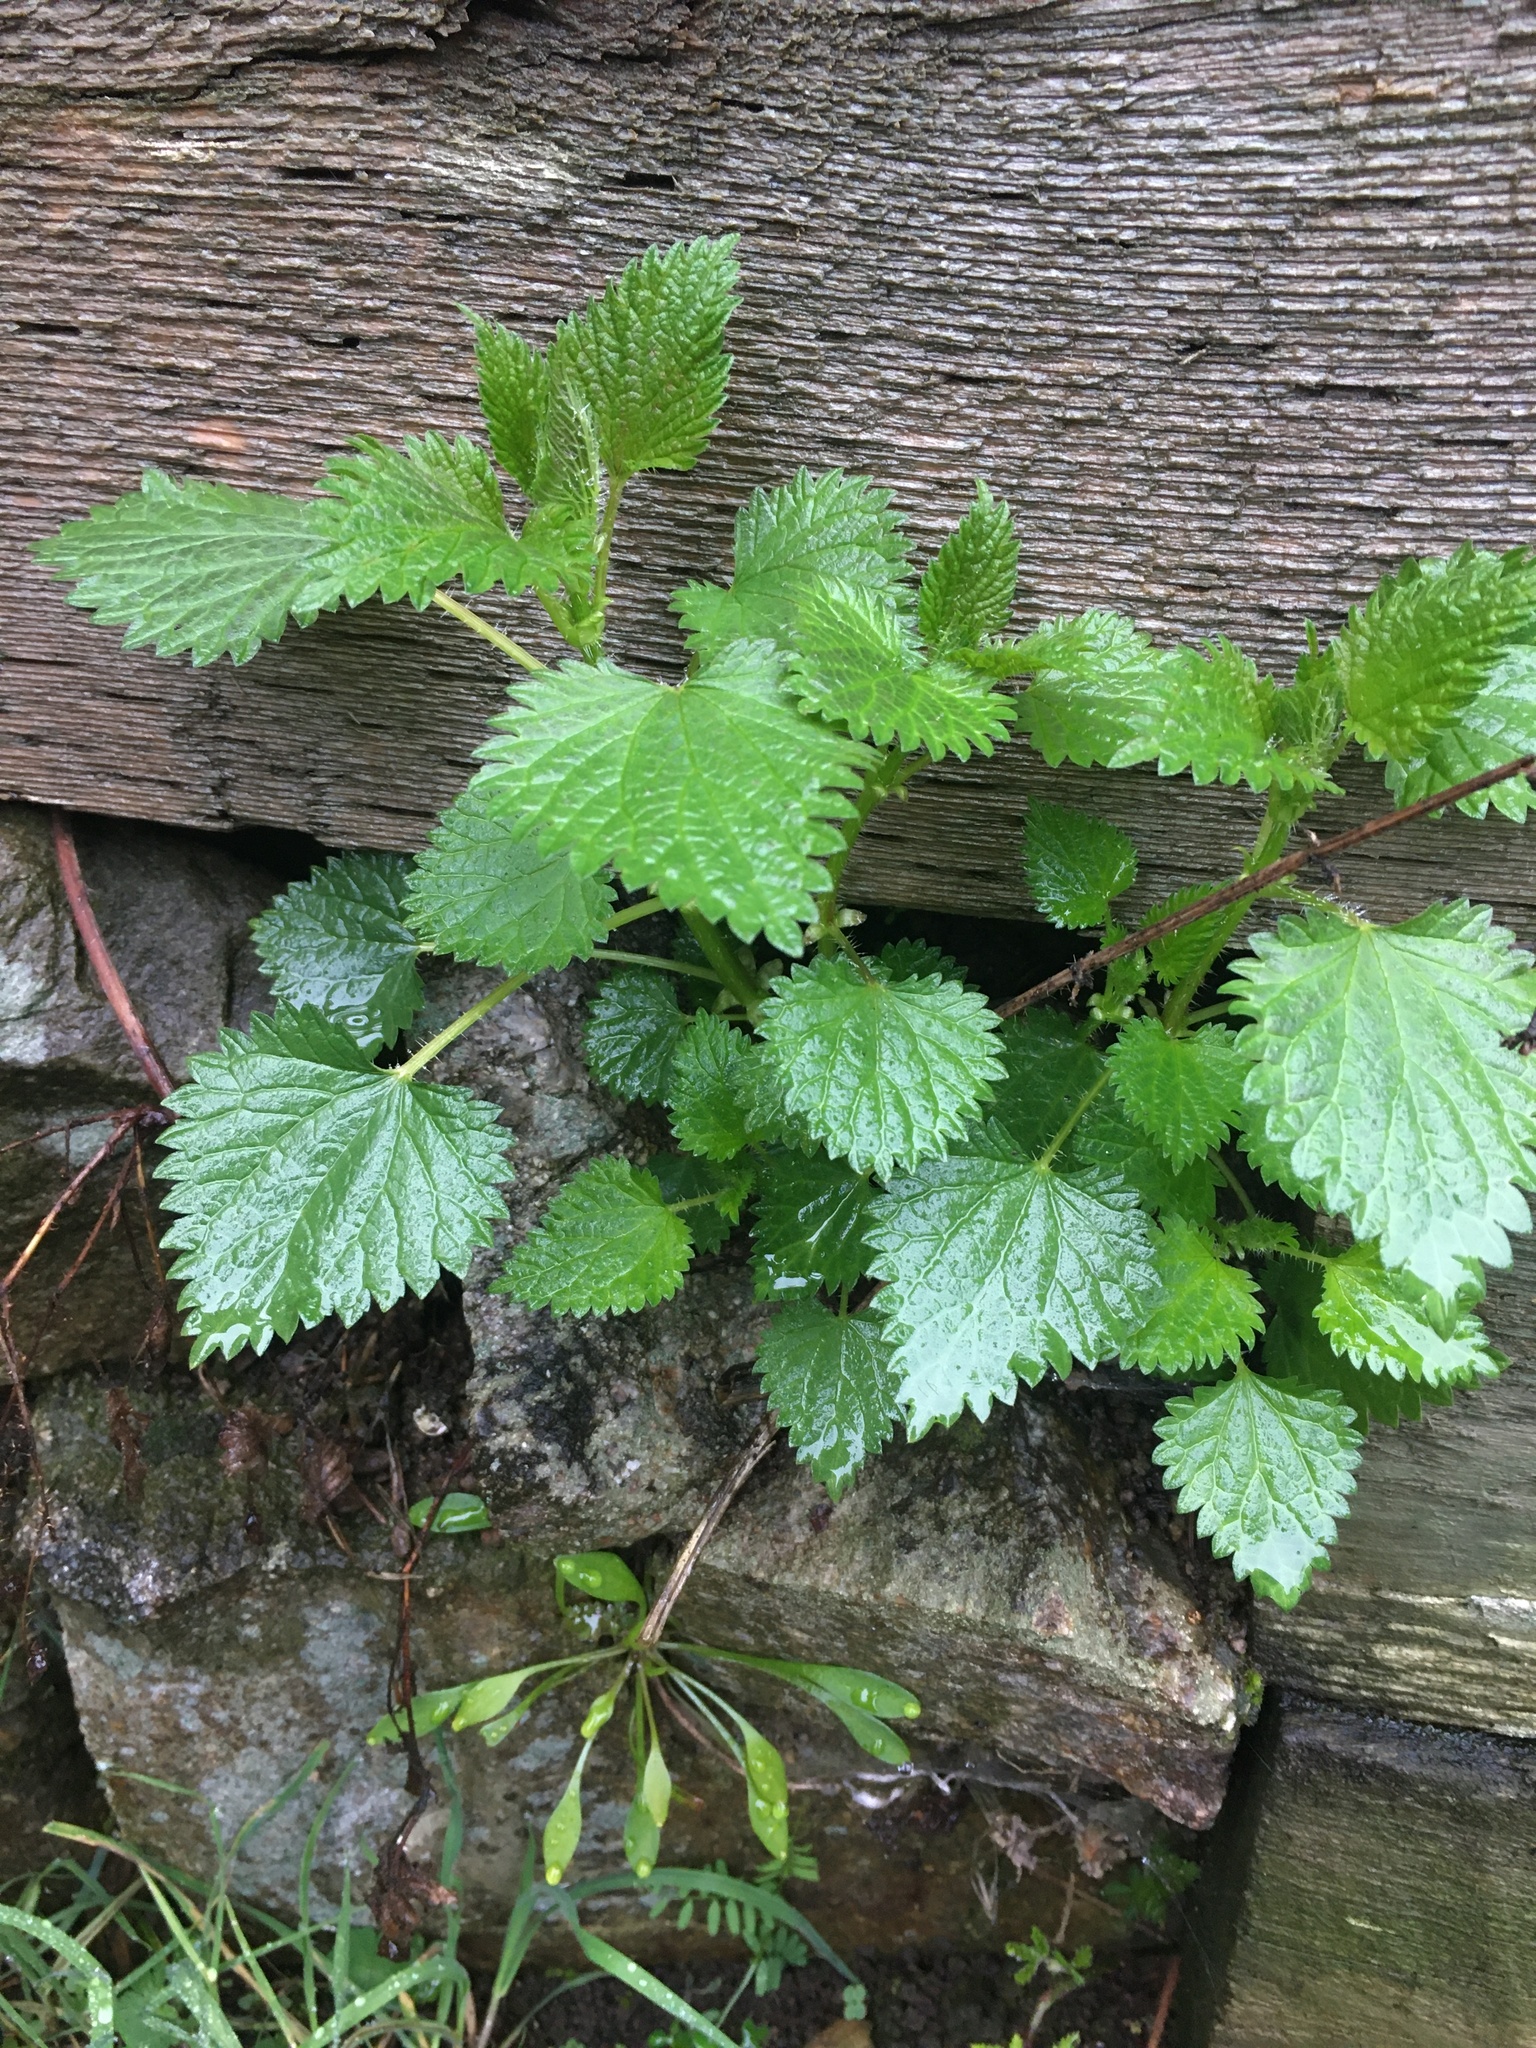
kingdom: Plantae
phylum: Tracheophyta
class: Magnoliopsida
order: Rosales
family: Urticaceae
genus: Urtica
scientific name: Urtica dioica
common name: Common nettle
